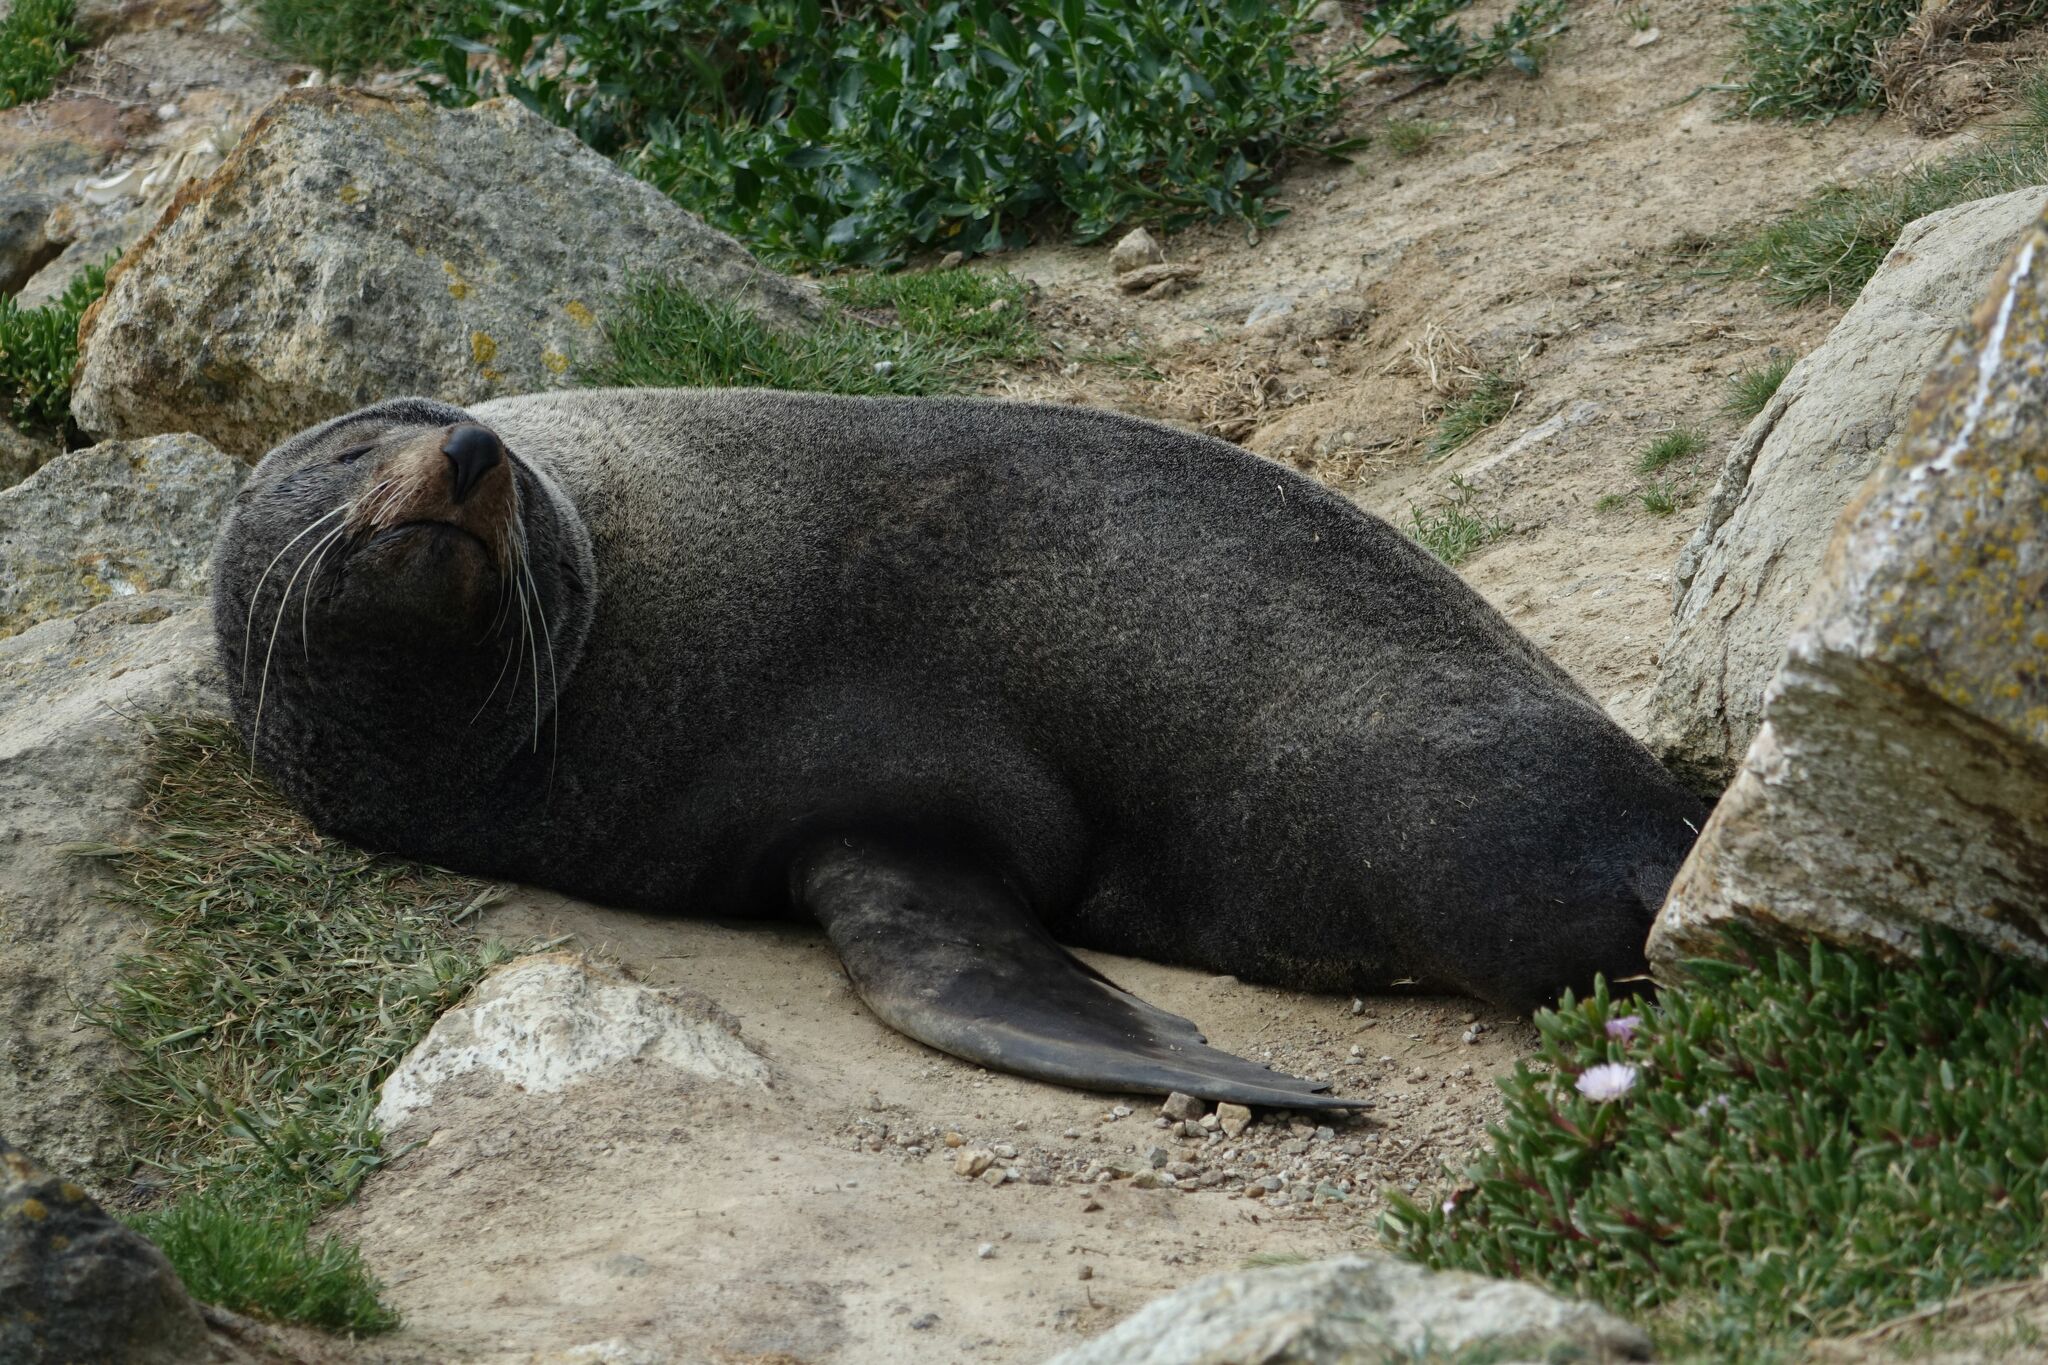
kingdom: Animalia
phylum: Chordata
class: Mammalia
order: Carnivora
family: Otariidae
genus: Arctocephalus
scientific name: Arctocephalus forsteri
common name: New zealand fur seal
